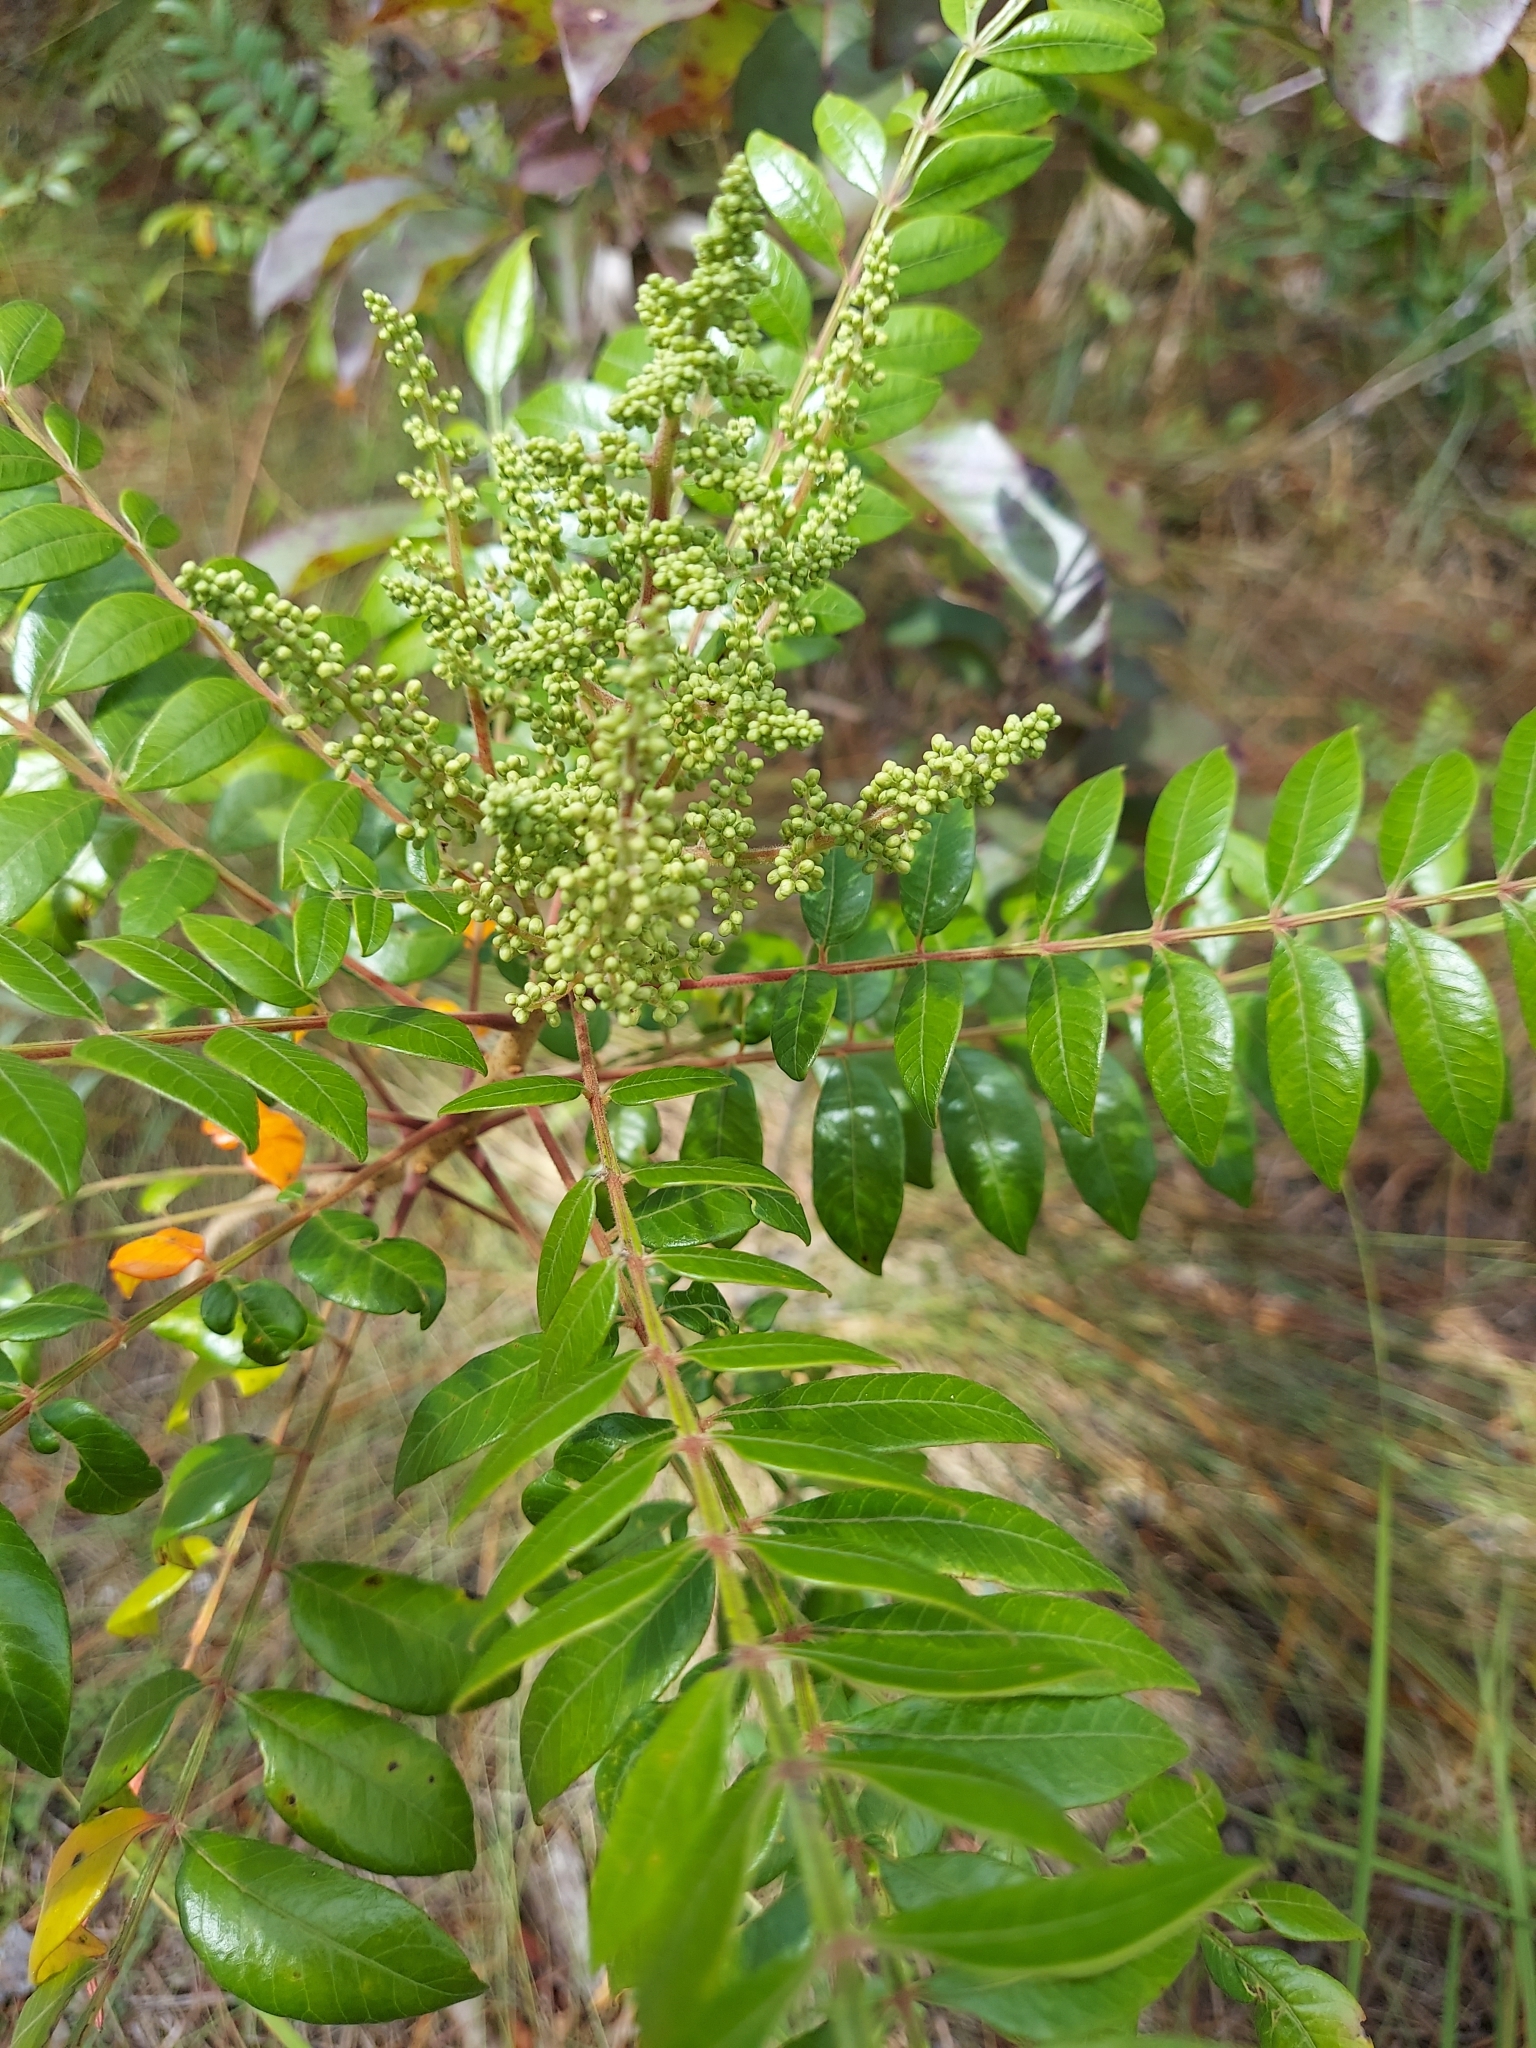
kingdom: Plantae
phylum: Tracheophyta
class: Magnoliopsida
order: Sapindales
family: Anacardiaceae
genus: Rhus
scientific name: Rhus copallina
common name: Shining sumac
